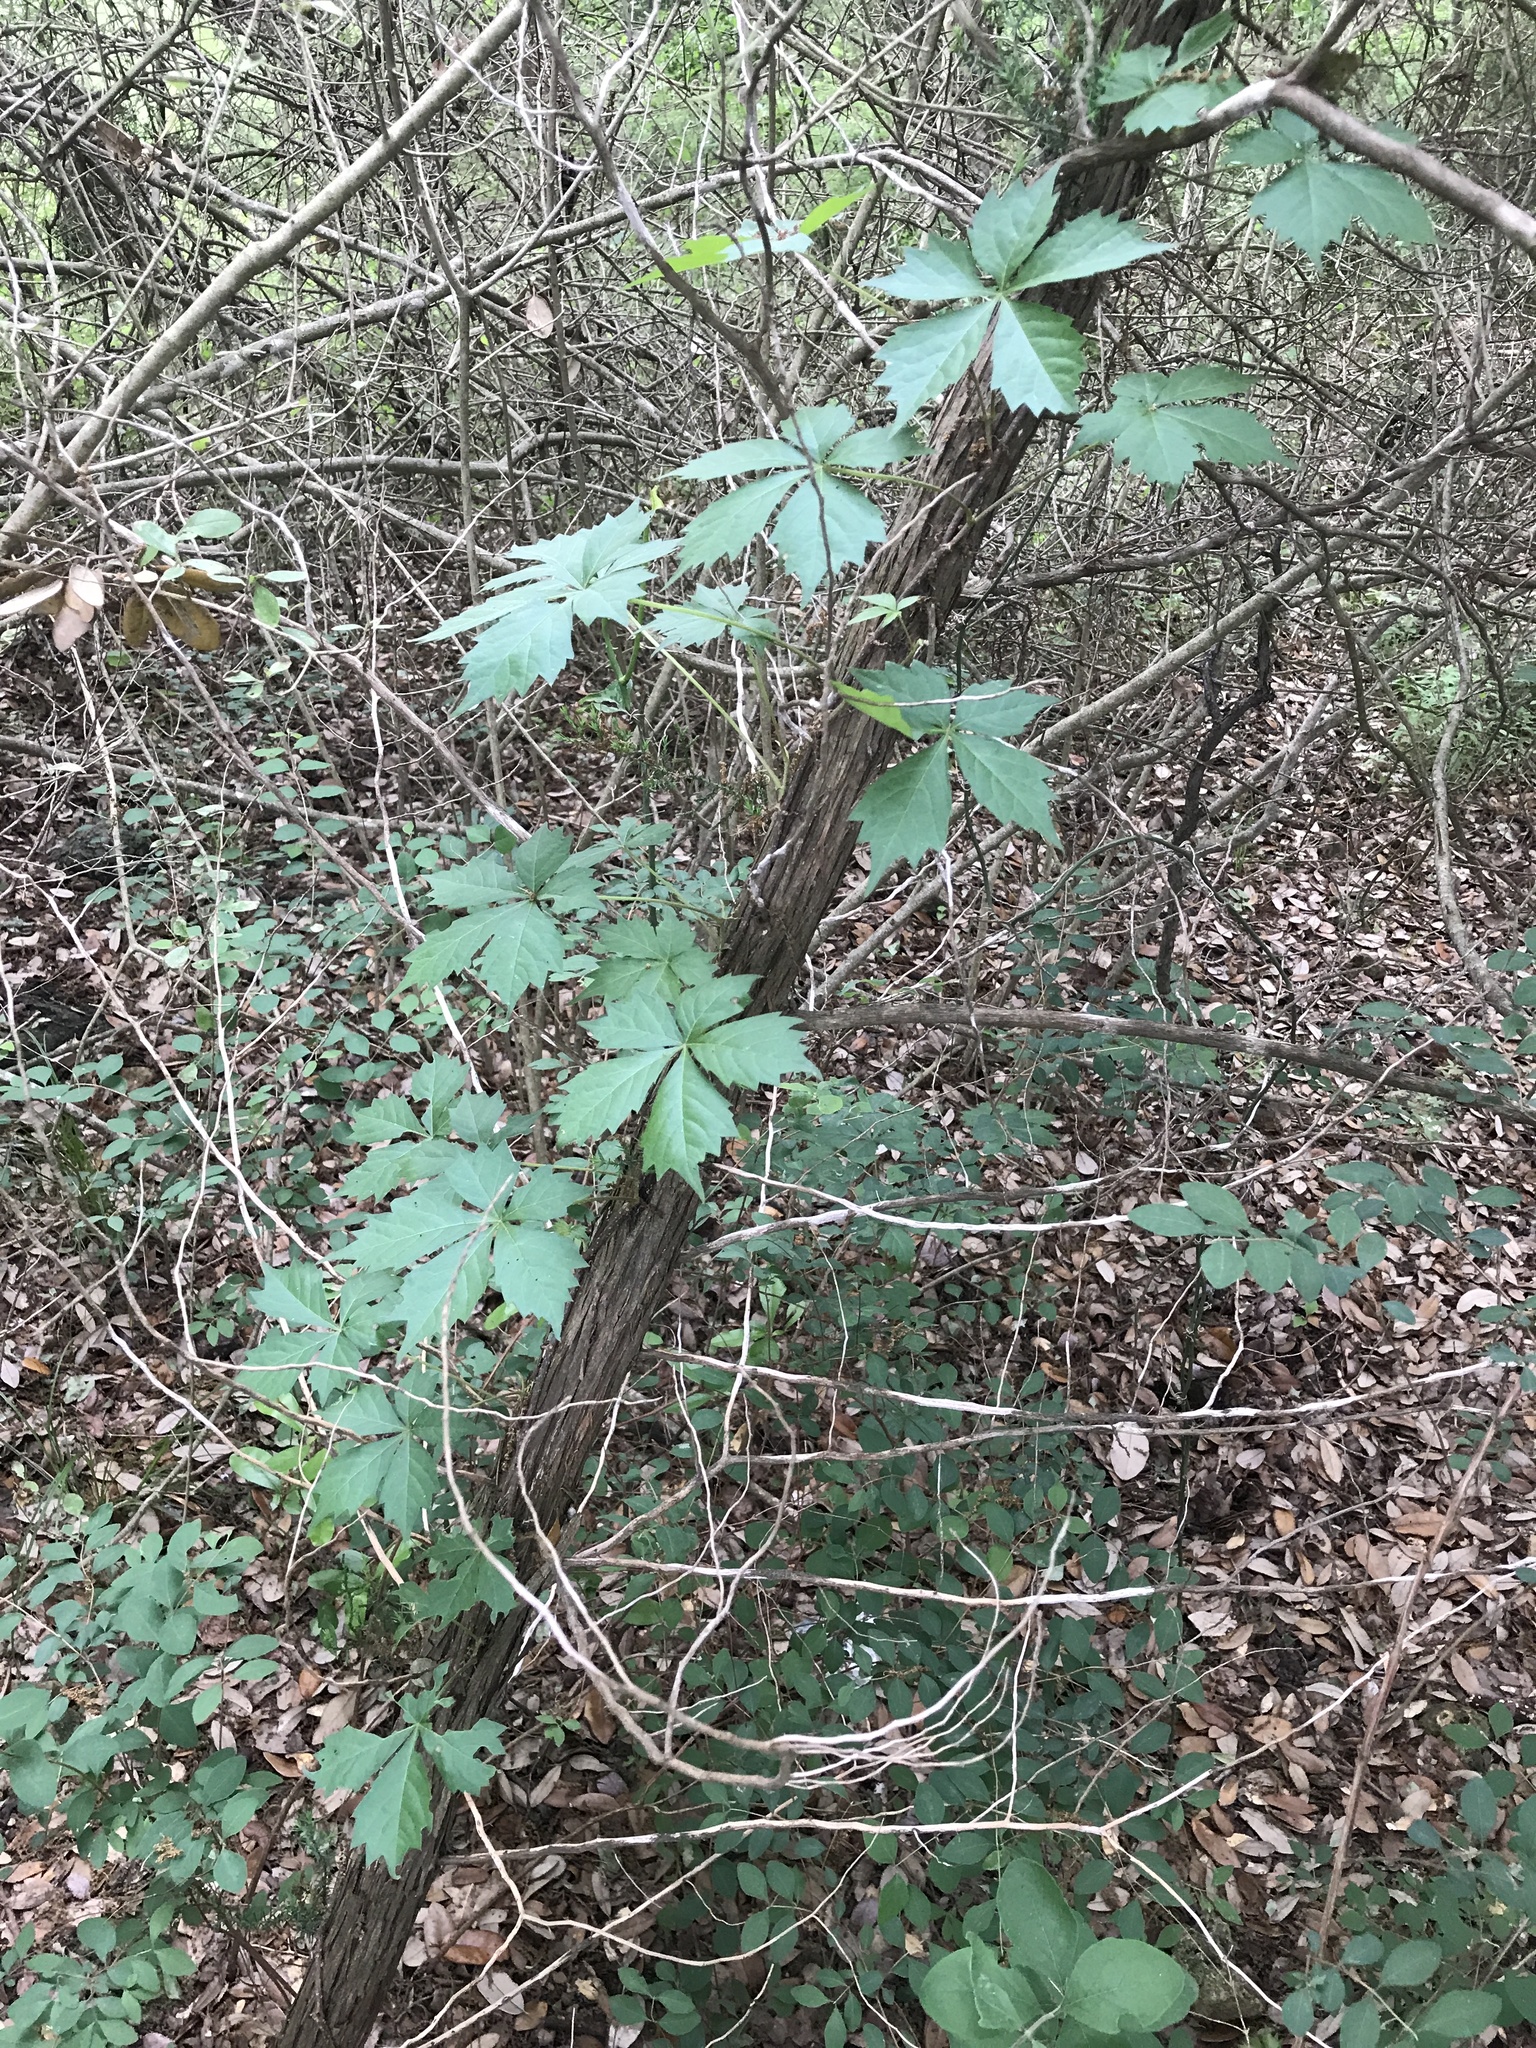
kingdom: Plantae
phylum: Tracheophyta
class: Magnoliopsida
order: Vitales
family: Vitaceae
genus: Parthenocissus
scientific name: Parthenocissus quinquefolia
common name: Virginia-creeper
